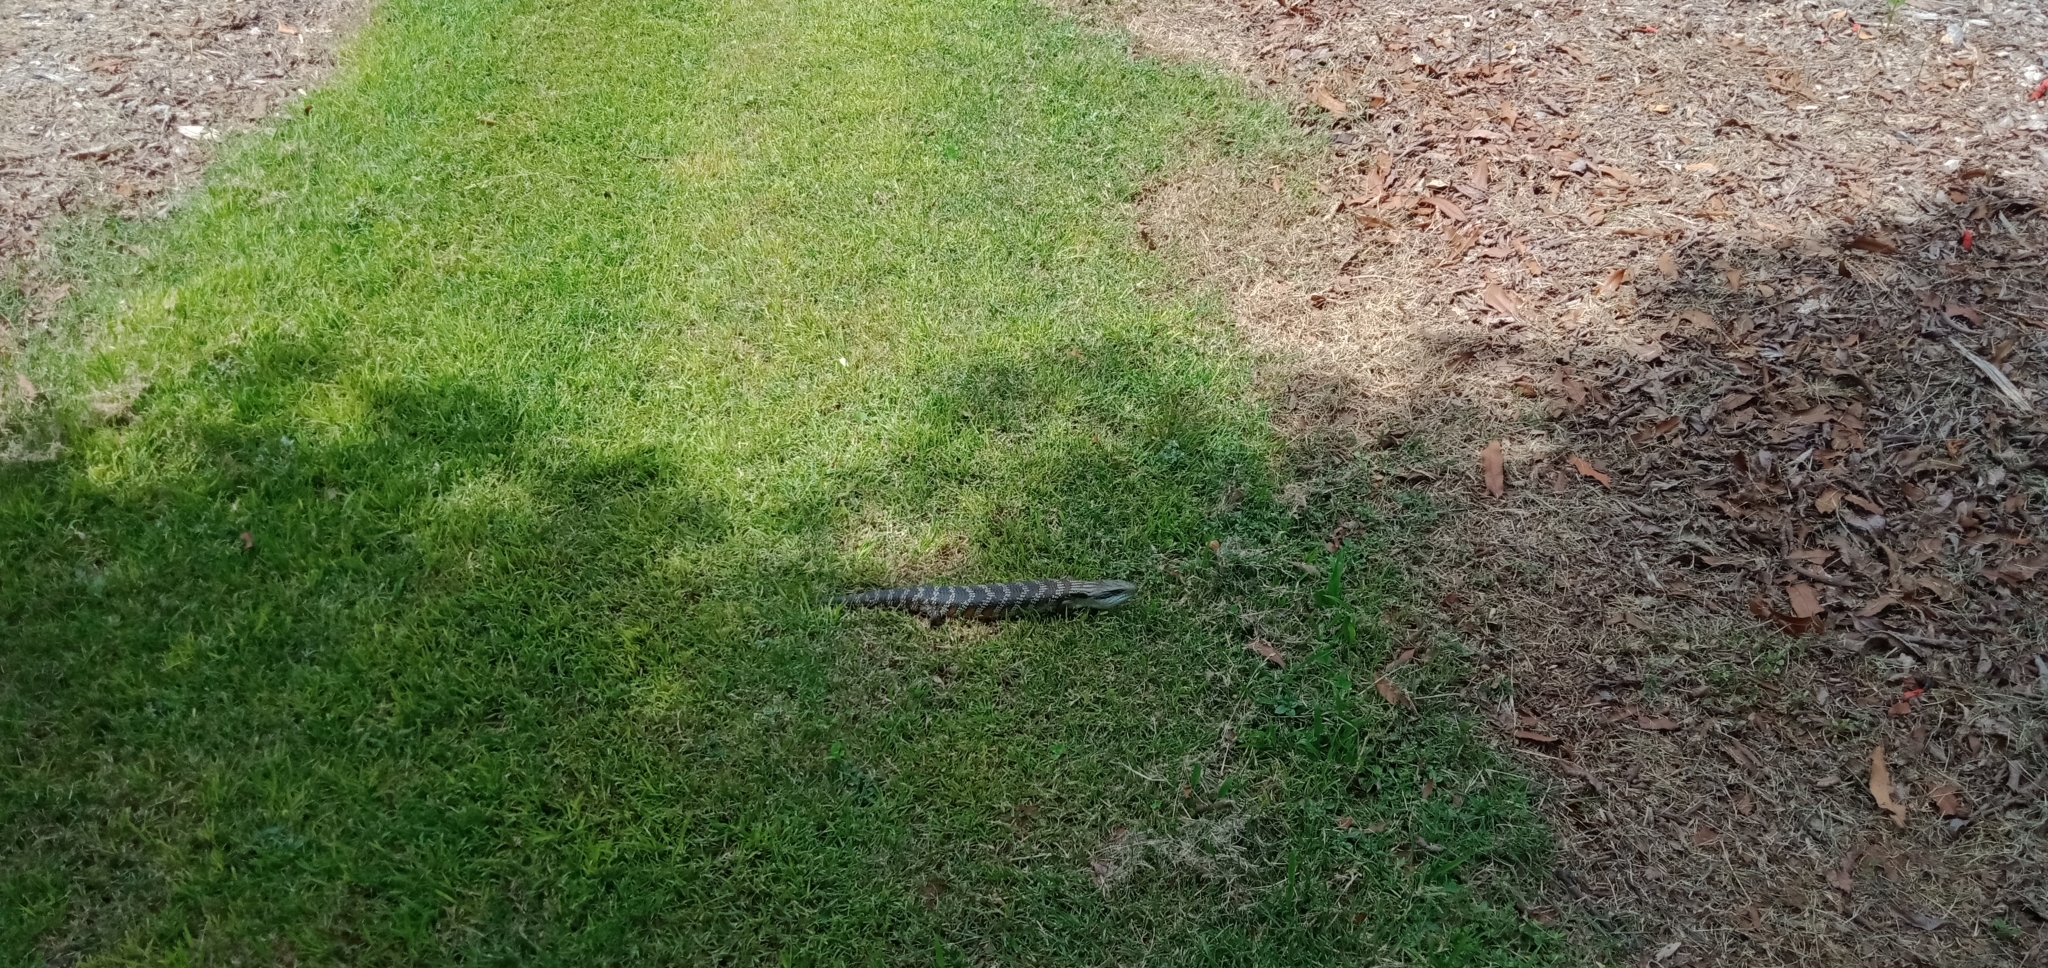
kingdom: Animalia
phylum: Chordata
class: Squamata
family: Scincidae
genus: Tiliqua
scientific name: Tiliqua scincoides
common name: Common bluetongue
